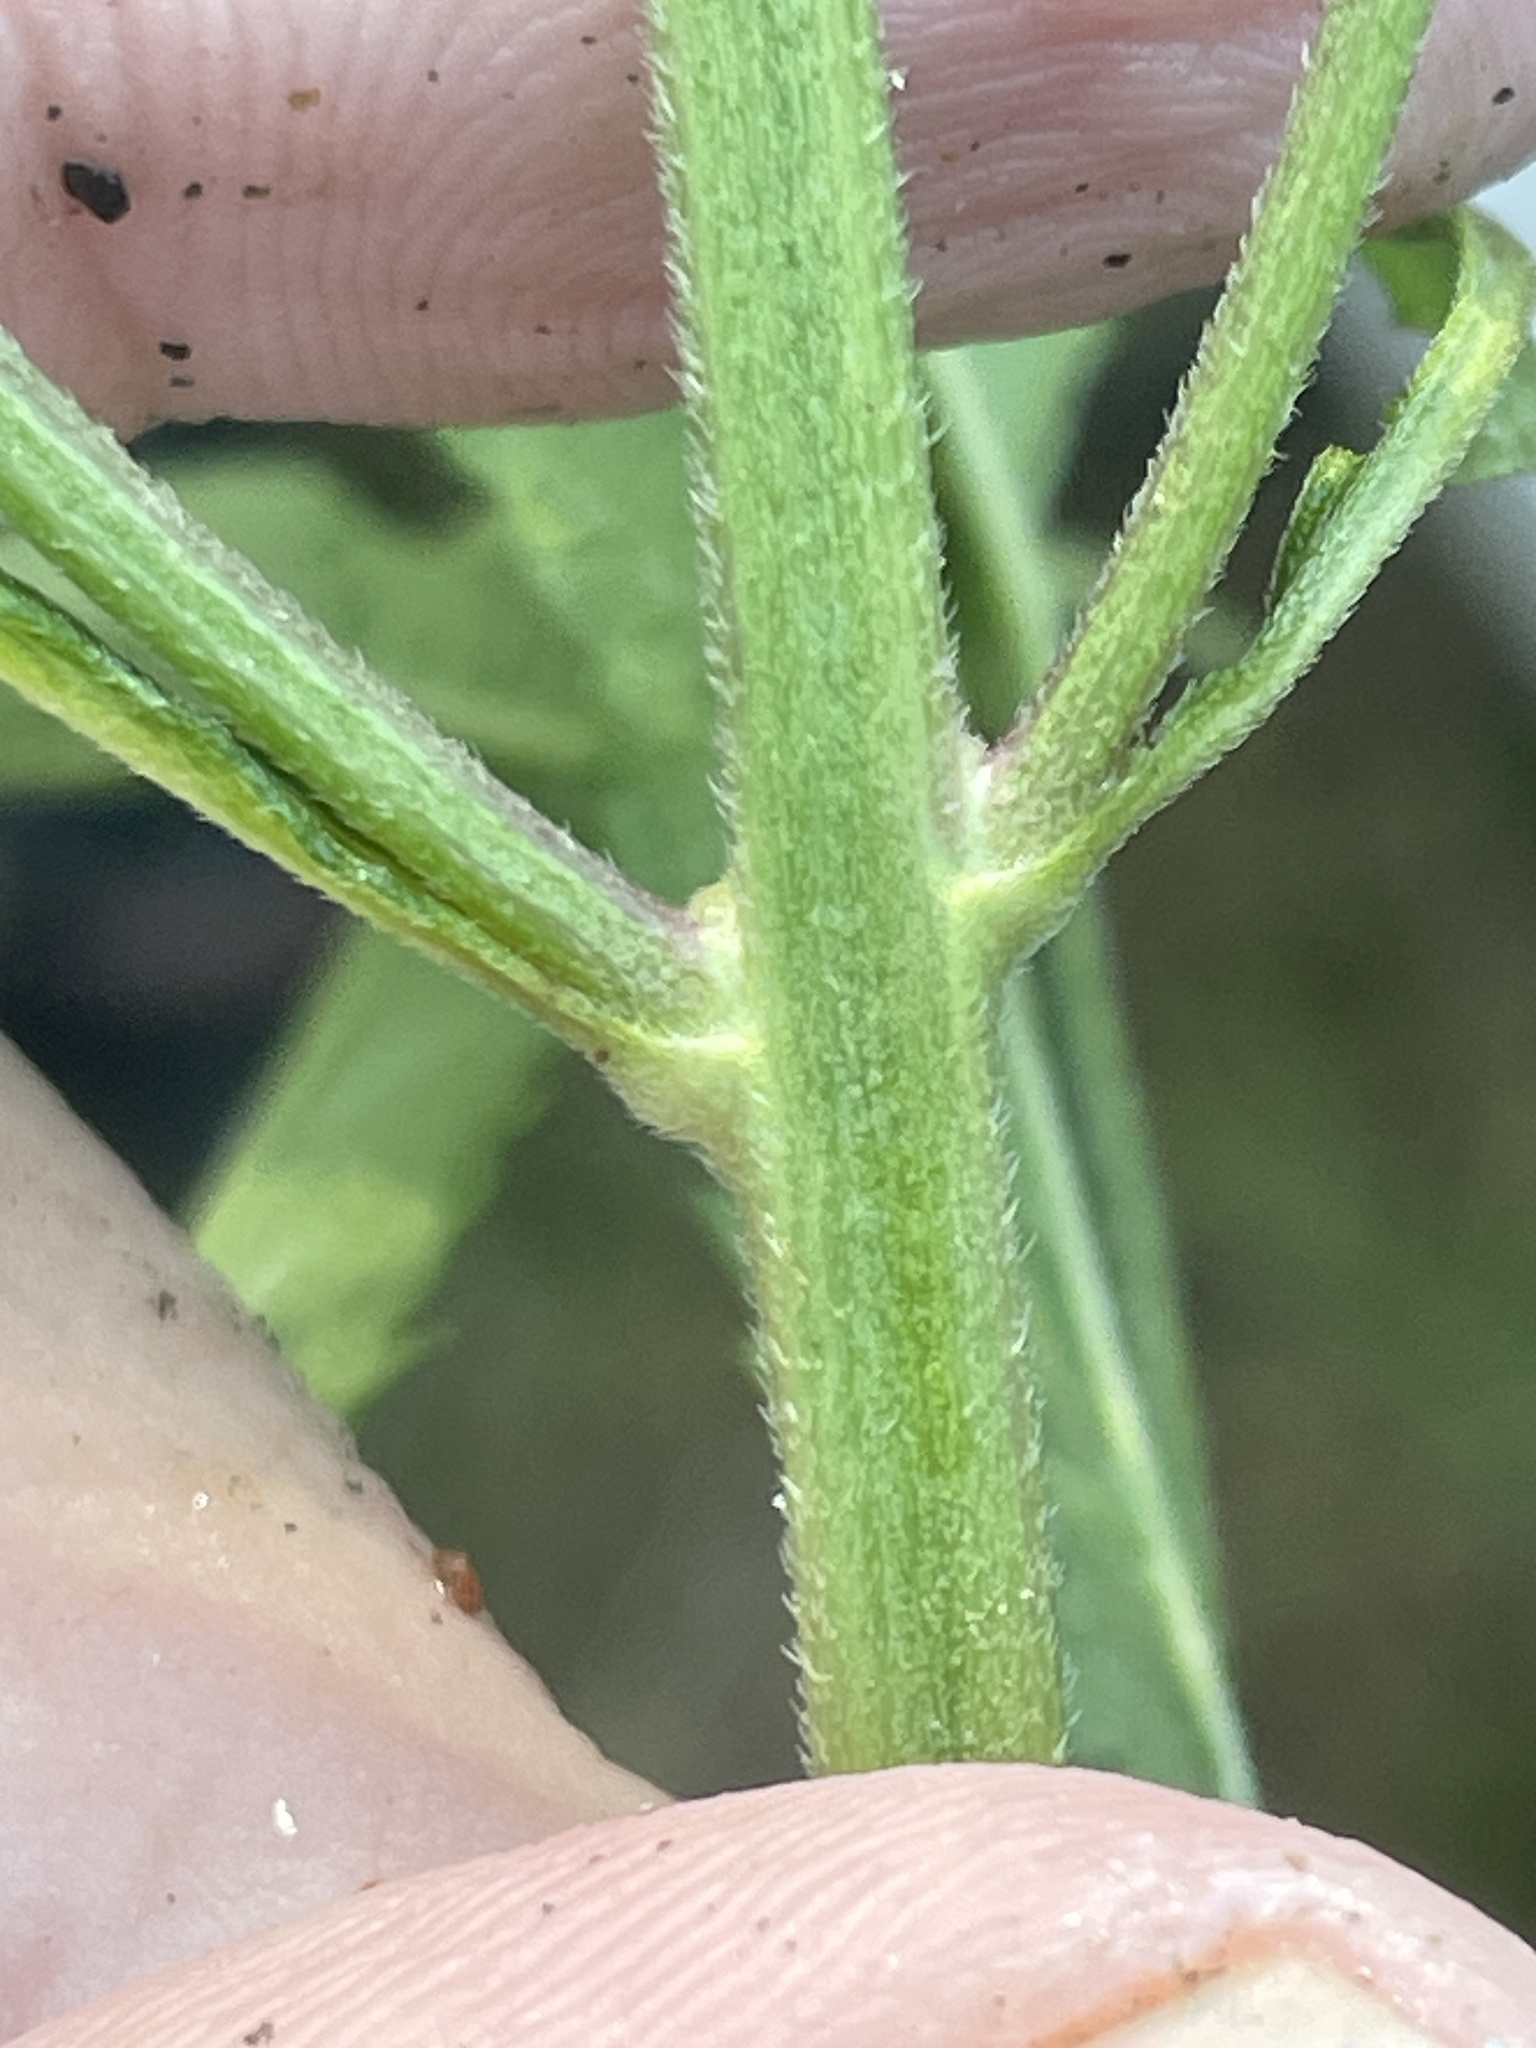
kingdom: Plantae
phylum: Tracheophyta
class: Magnoliopsida
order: Lamiales
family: Verbenaceae
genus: Verbena
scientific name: Verbena hastata
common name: American blue vervain
